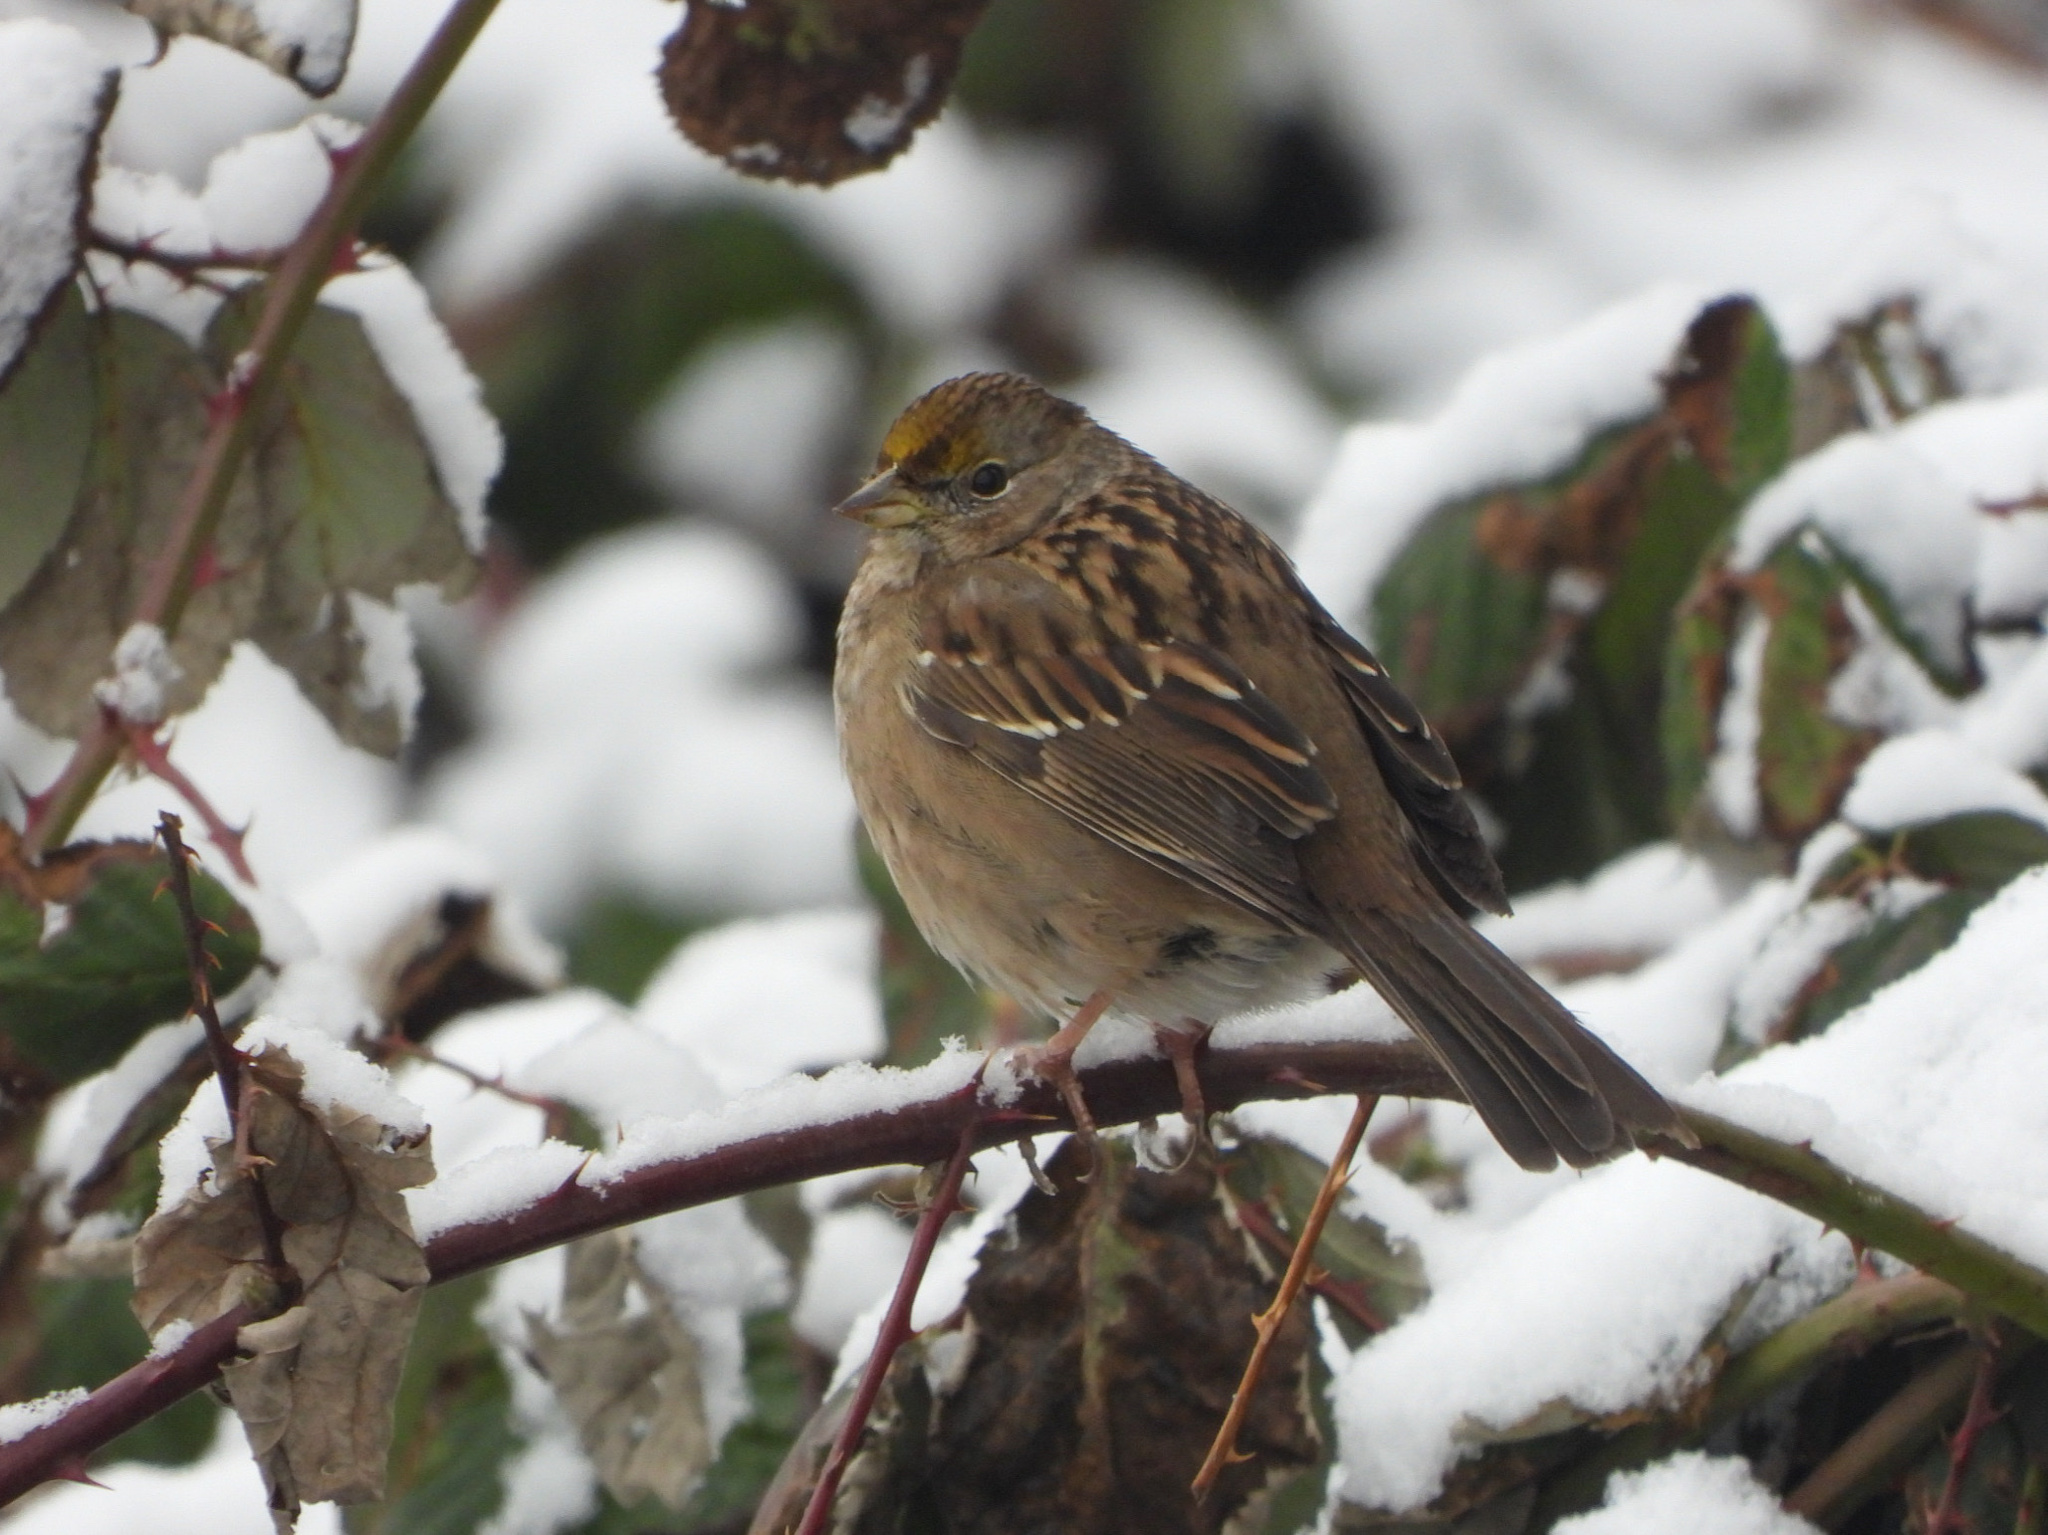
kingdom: Animalia
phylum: Chordata
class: Aves
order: Passeriformes
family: Passerellidae
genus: Zonotrichia
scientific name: Zonotrichia atricapilla
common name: Golden-crowned sparrow
